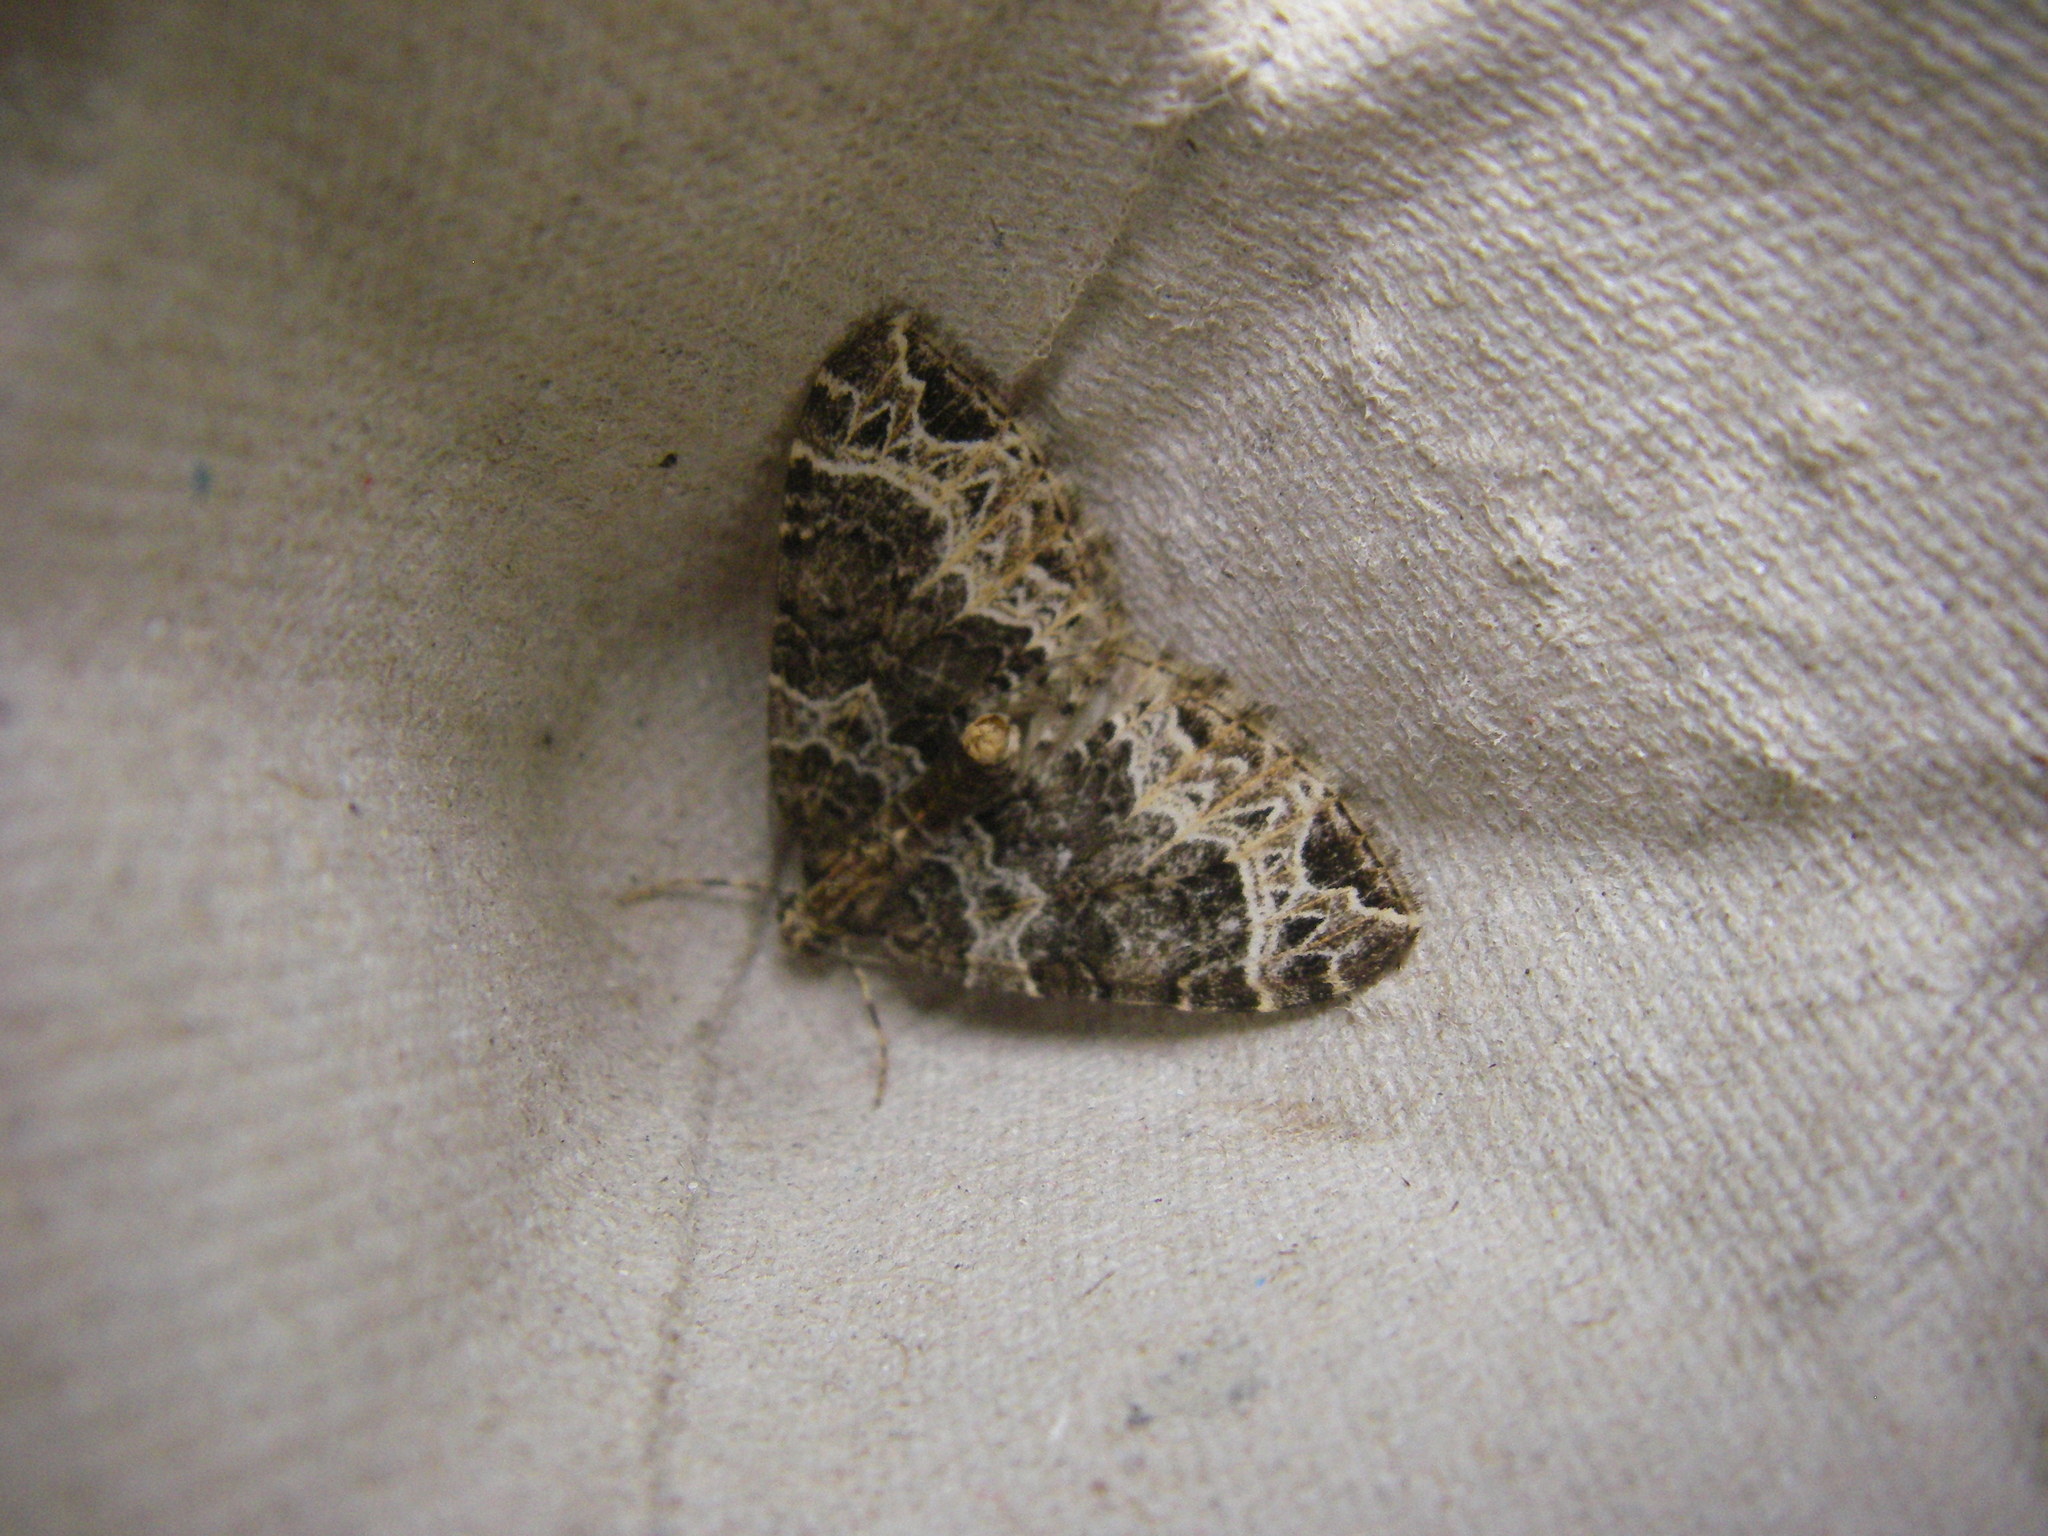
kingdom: Animalia
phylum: Arthropoda
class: Insecta
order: Lepidoptera
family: Geometridae
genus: Ecliptopera
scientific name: Ecliptopera silaceata
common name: Small phoenix
